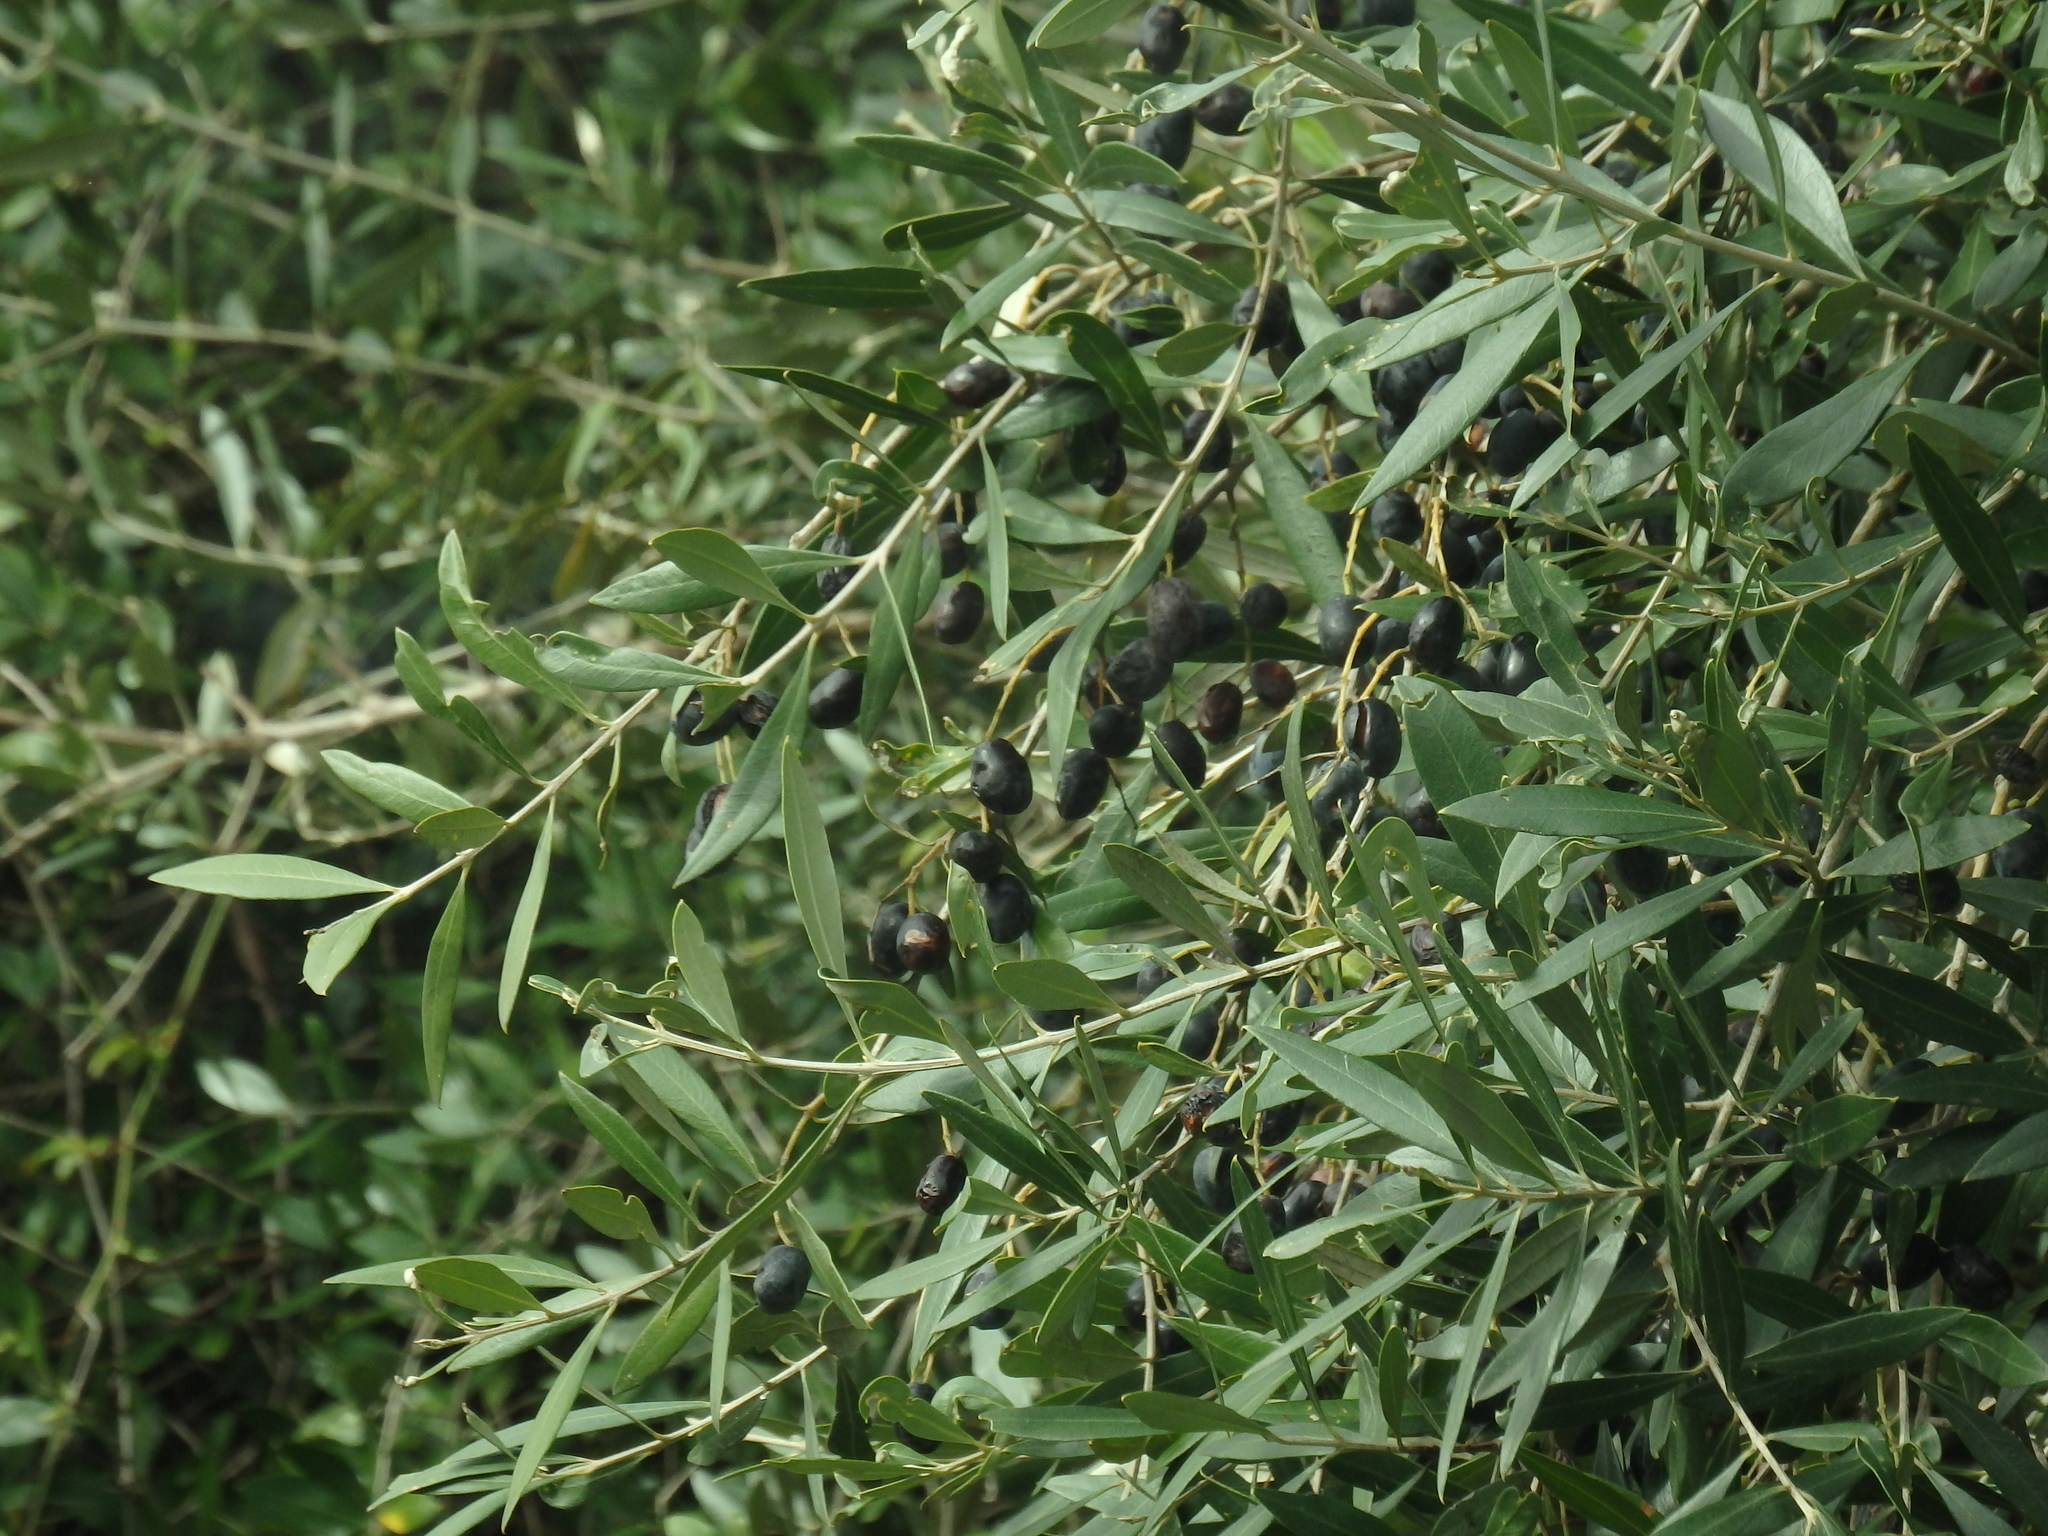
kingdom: Plantae
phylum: Tracheophyta
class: Magnoliopsida
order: Lamiales
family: Oleaceae
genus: Olea
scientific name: Olea europaea
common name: Olive
